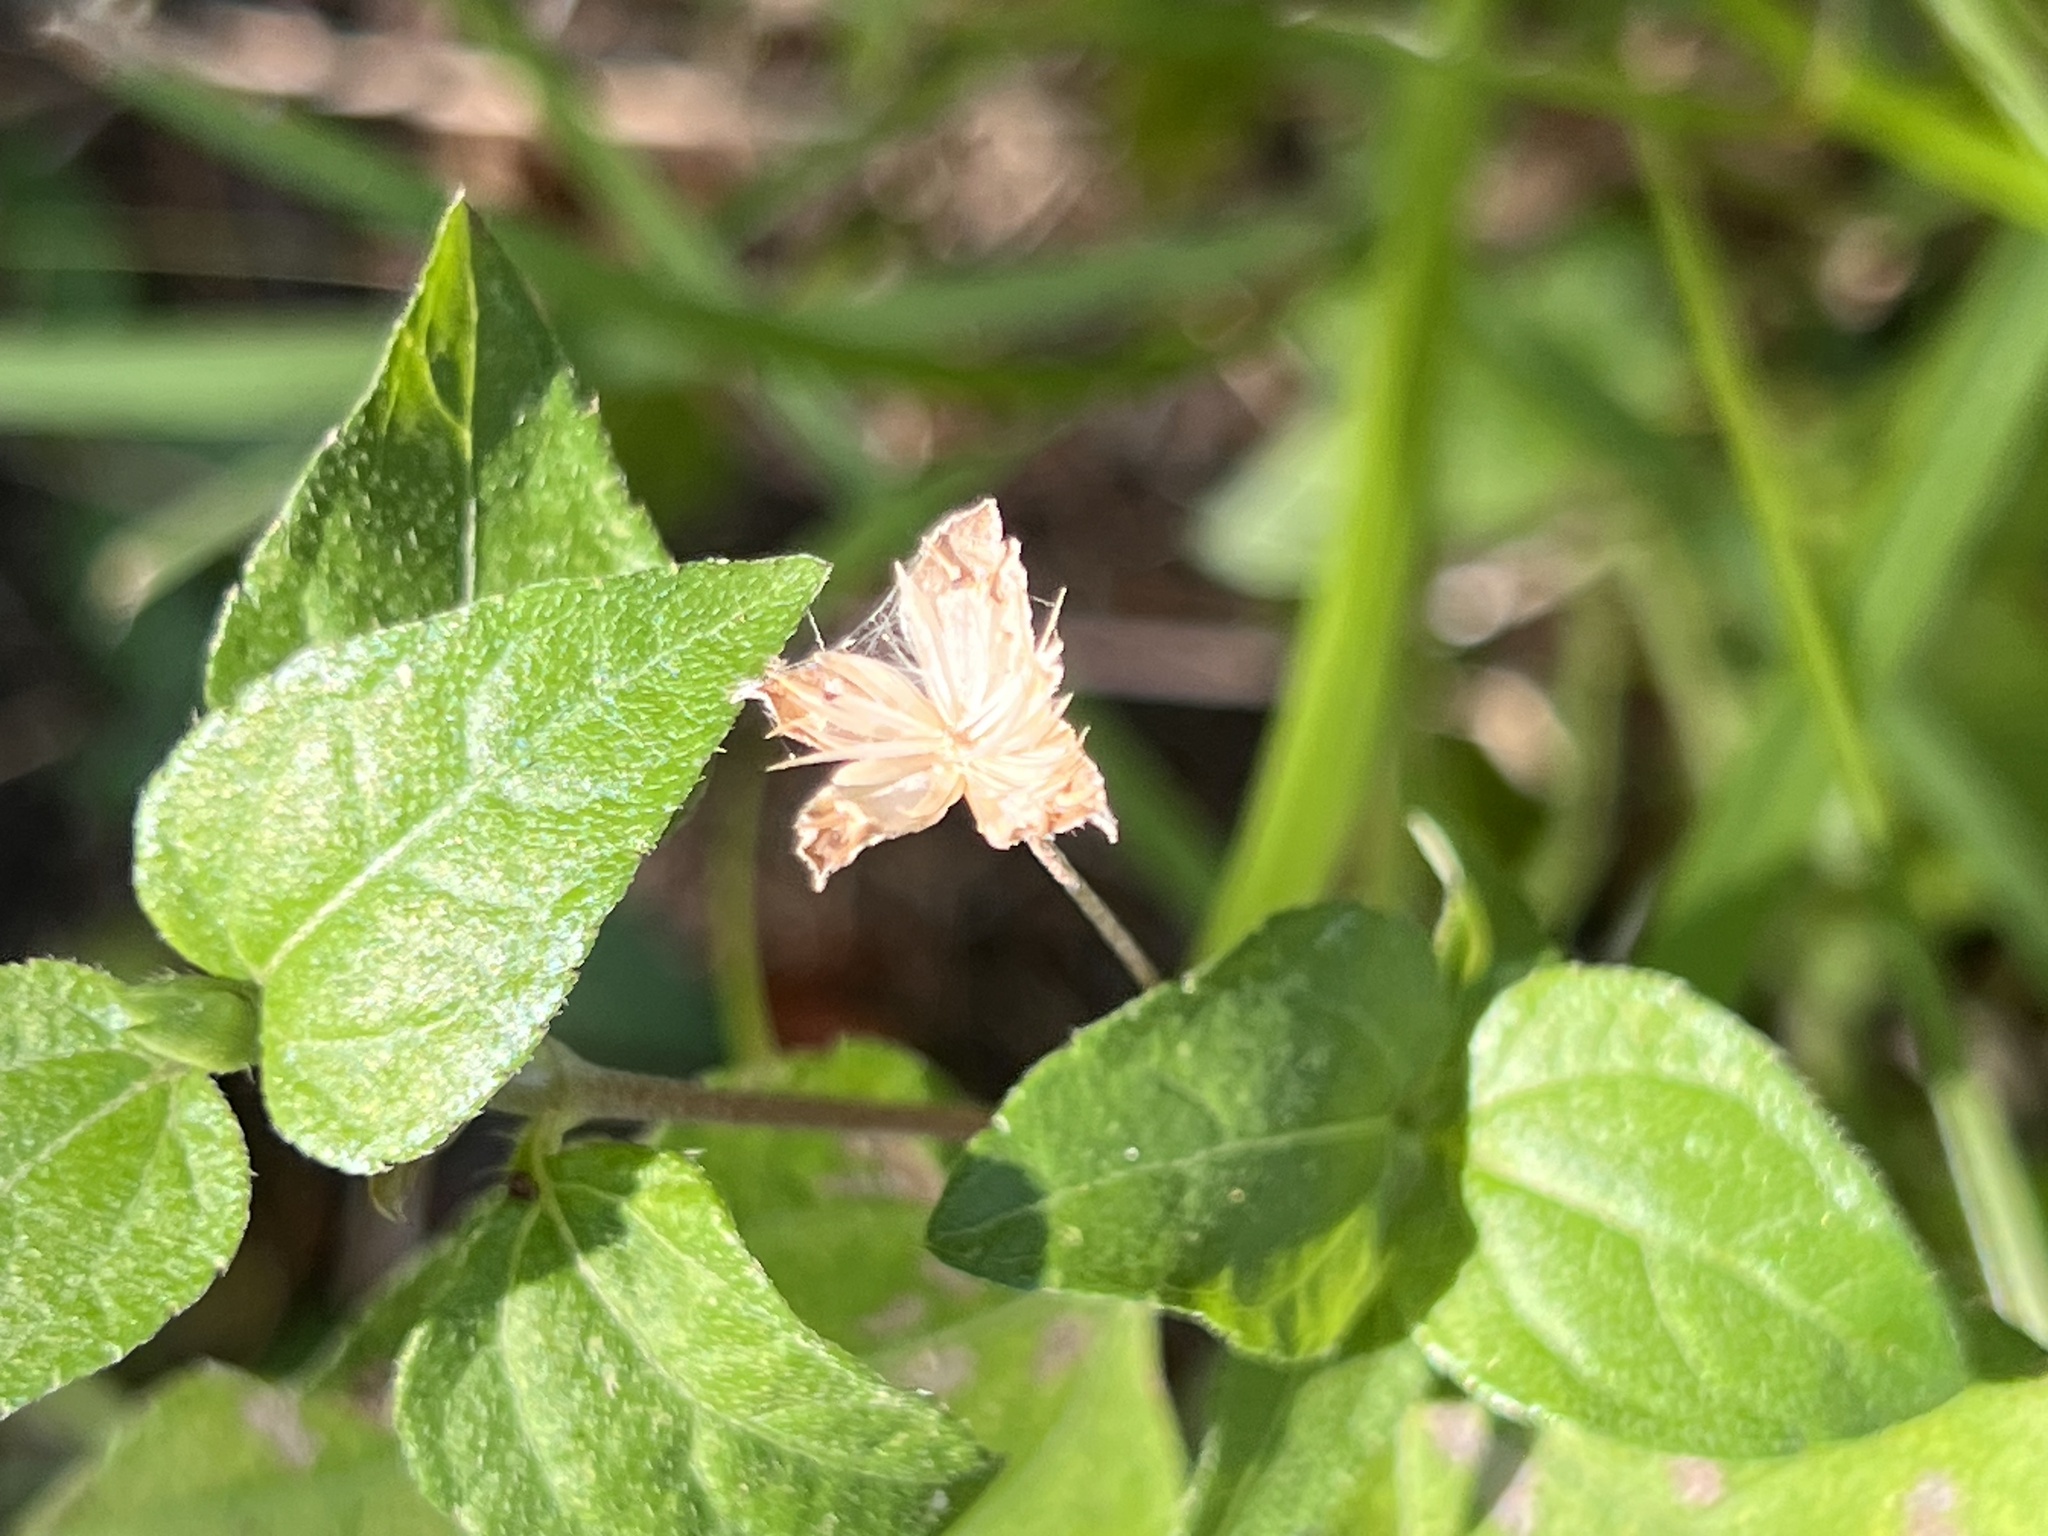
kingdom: Plantae
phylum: Tracheophyta
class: Magnoliopsida
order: Asterales
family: Asteraceae
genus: Calyptocarpus
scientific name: Calyptocarpus vialis
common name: Straggler daisy
